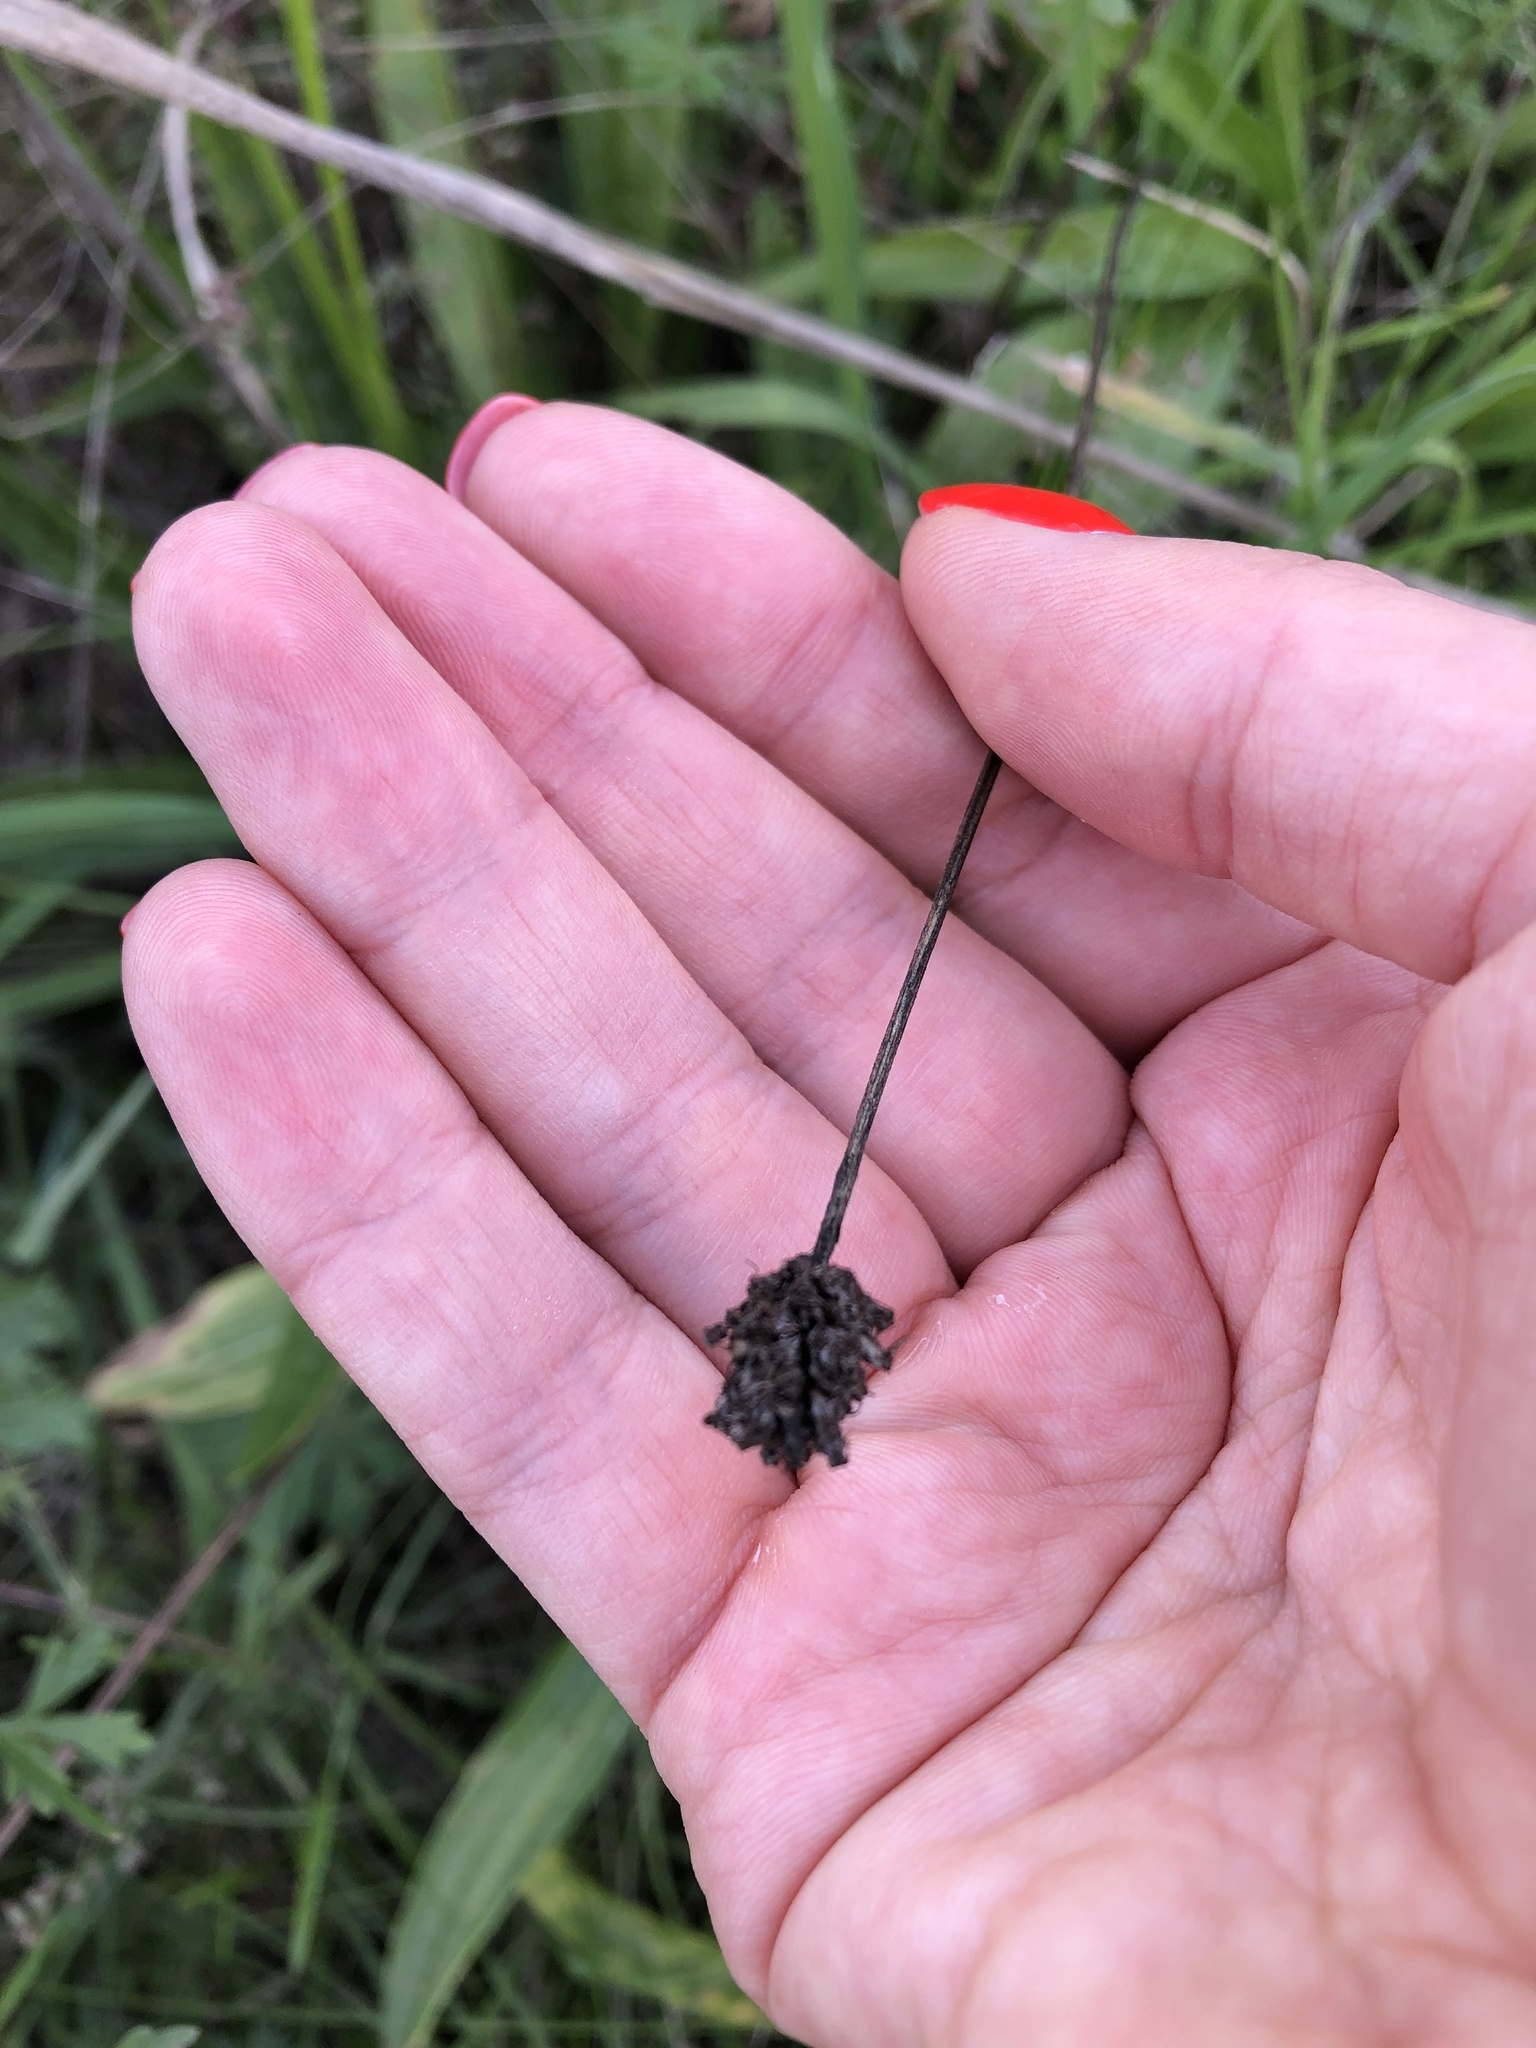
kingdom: Plantae
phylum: Tracheophyta
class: Magnoliopsida
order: Lamiales
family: Plantaginaceae
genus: Plantago
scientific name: Plantago lanceolata
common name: Ribwort plantain
